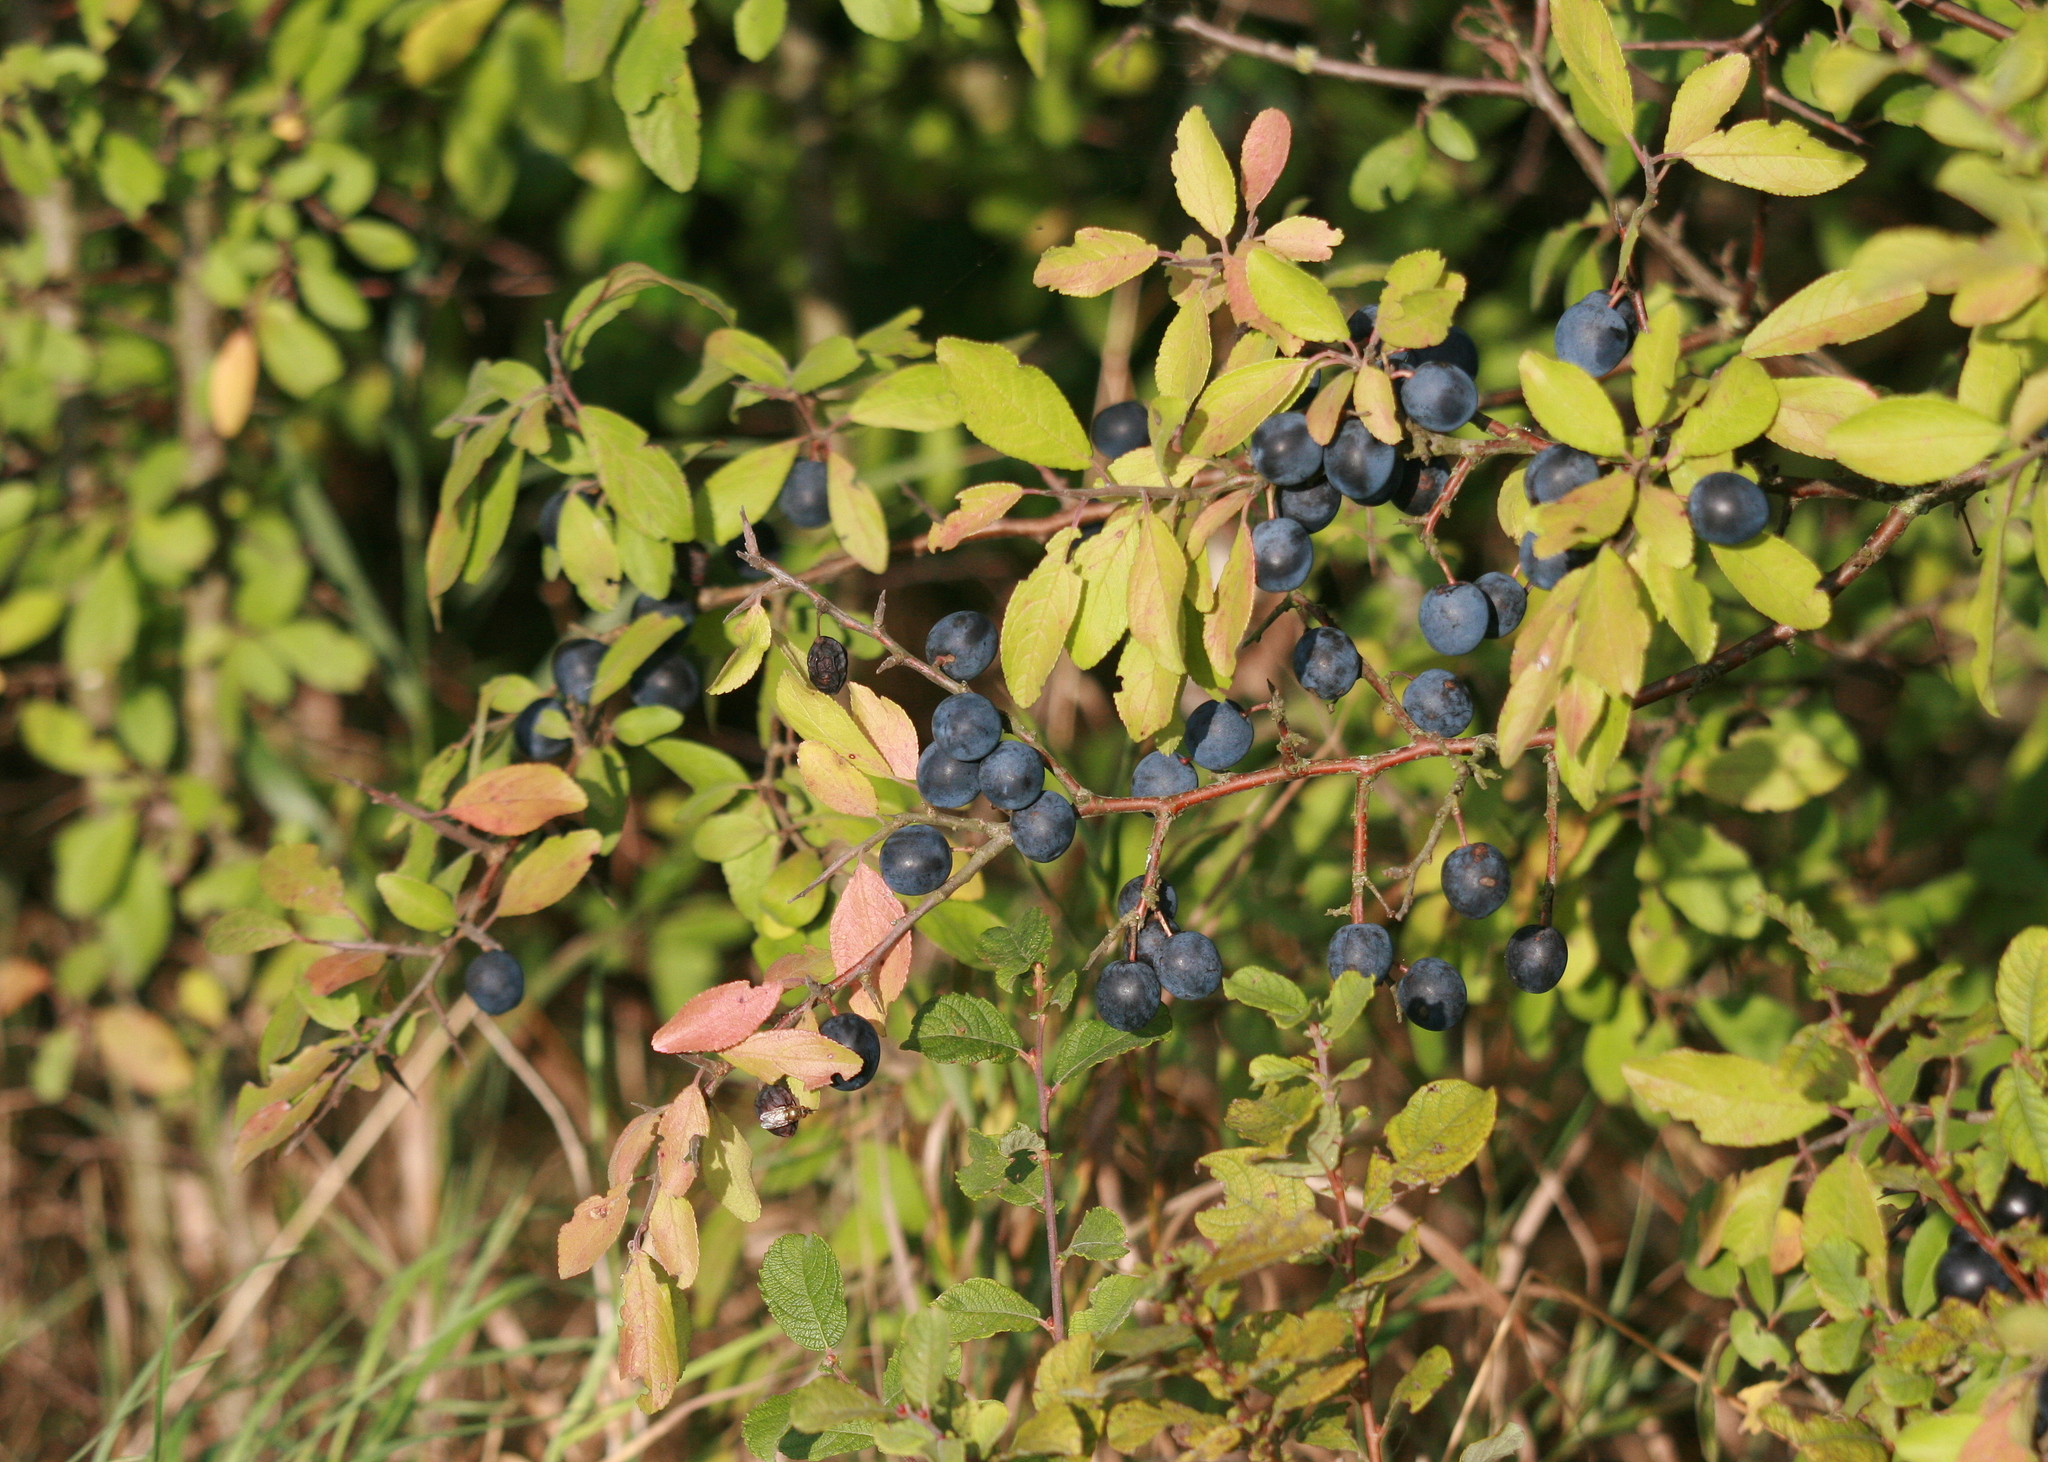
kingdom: Plantae
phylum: Tracheophyta
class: Magnoliopsida
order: Rosales
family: Rosaceae
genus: Prunus
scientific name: Prunus spinosa
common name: Blackthorn
